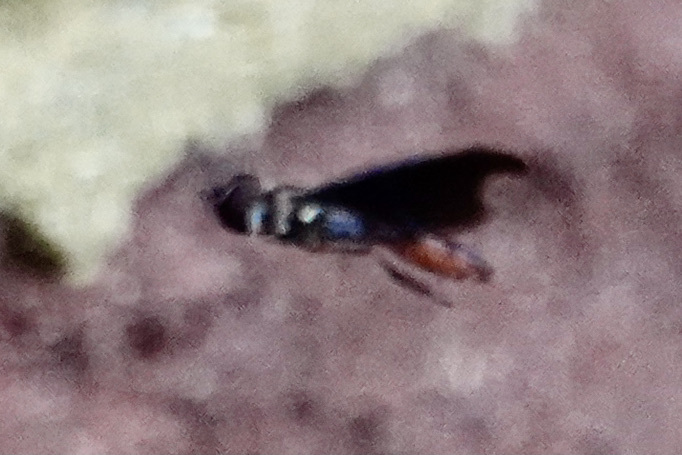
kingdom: Animalia
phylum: Arthropoda
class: Insecta
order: Diptera
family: Syrphidae
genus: Ocyptamus
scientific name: Ocyptamus fuscipennis
